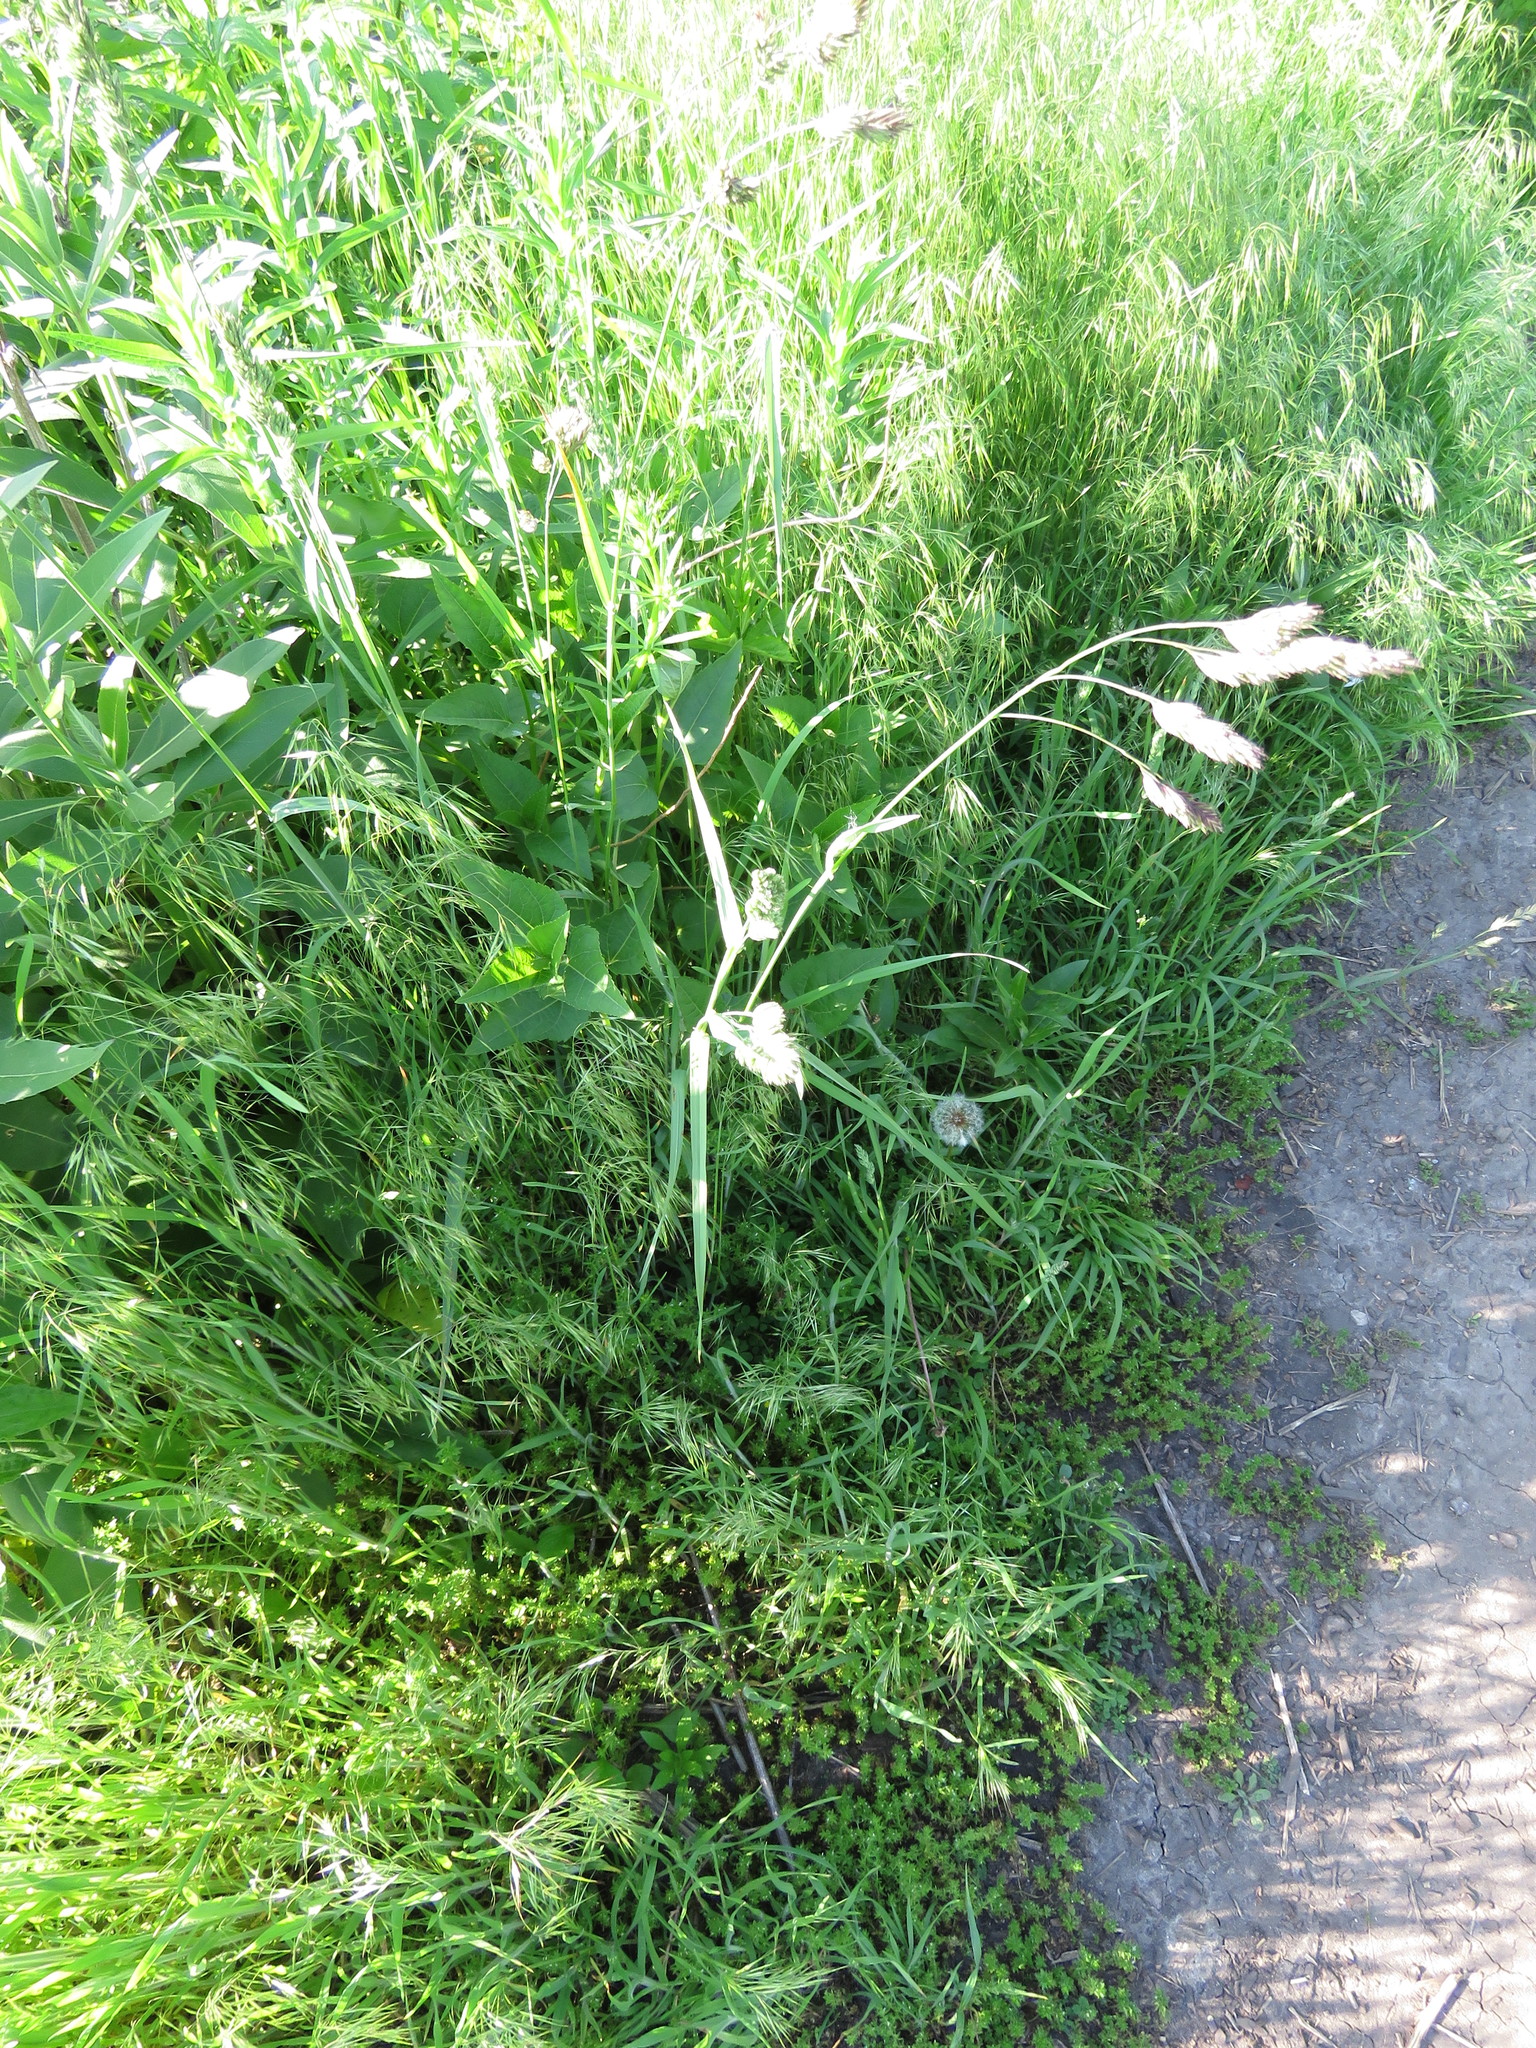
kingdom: Plantae
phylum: Tracheophyta
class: Liliopsida
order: Poales
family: Poaceae
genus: Dactylis
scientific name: Dactylis glomerata
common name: Orchardgrass
